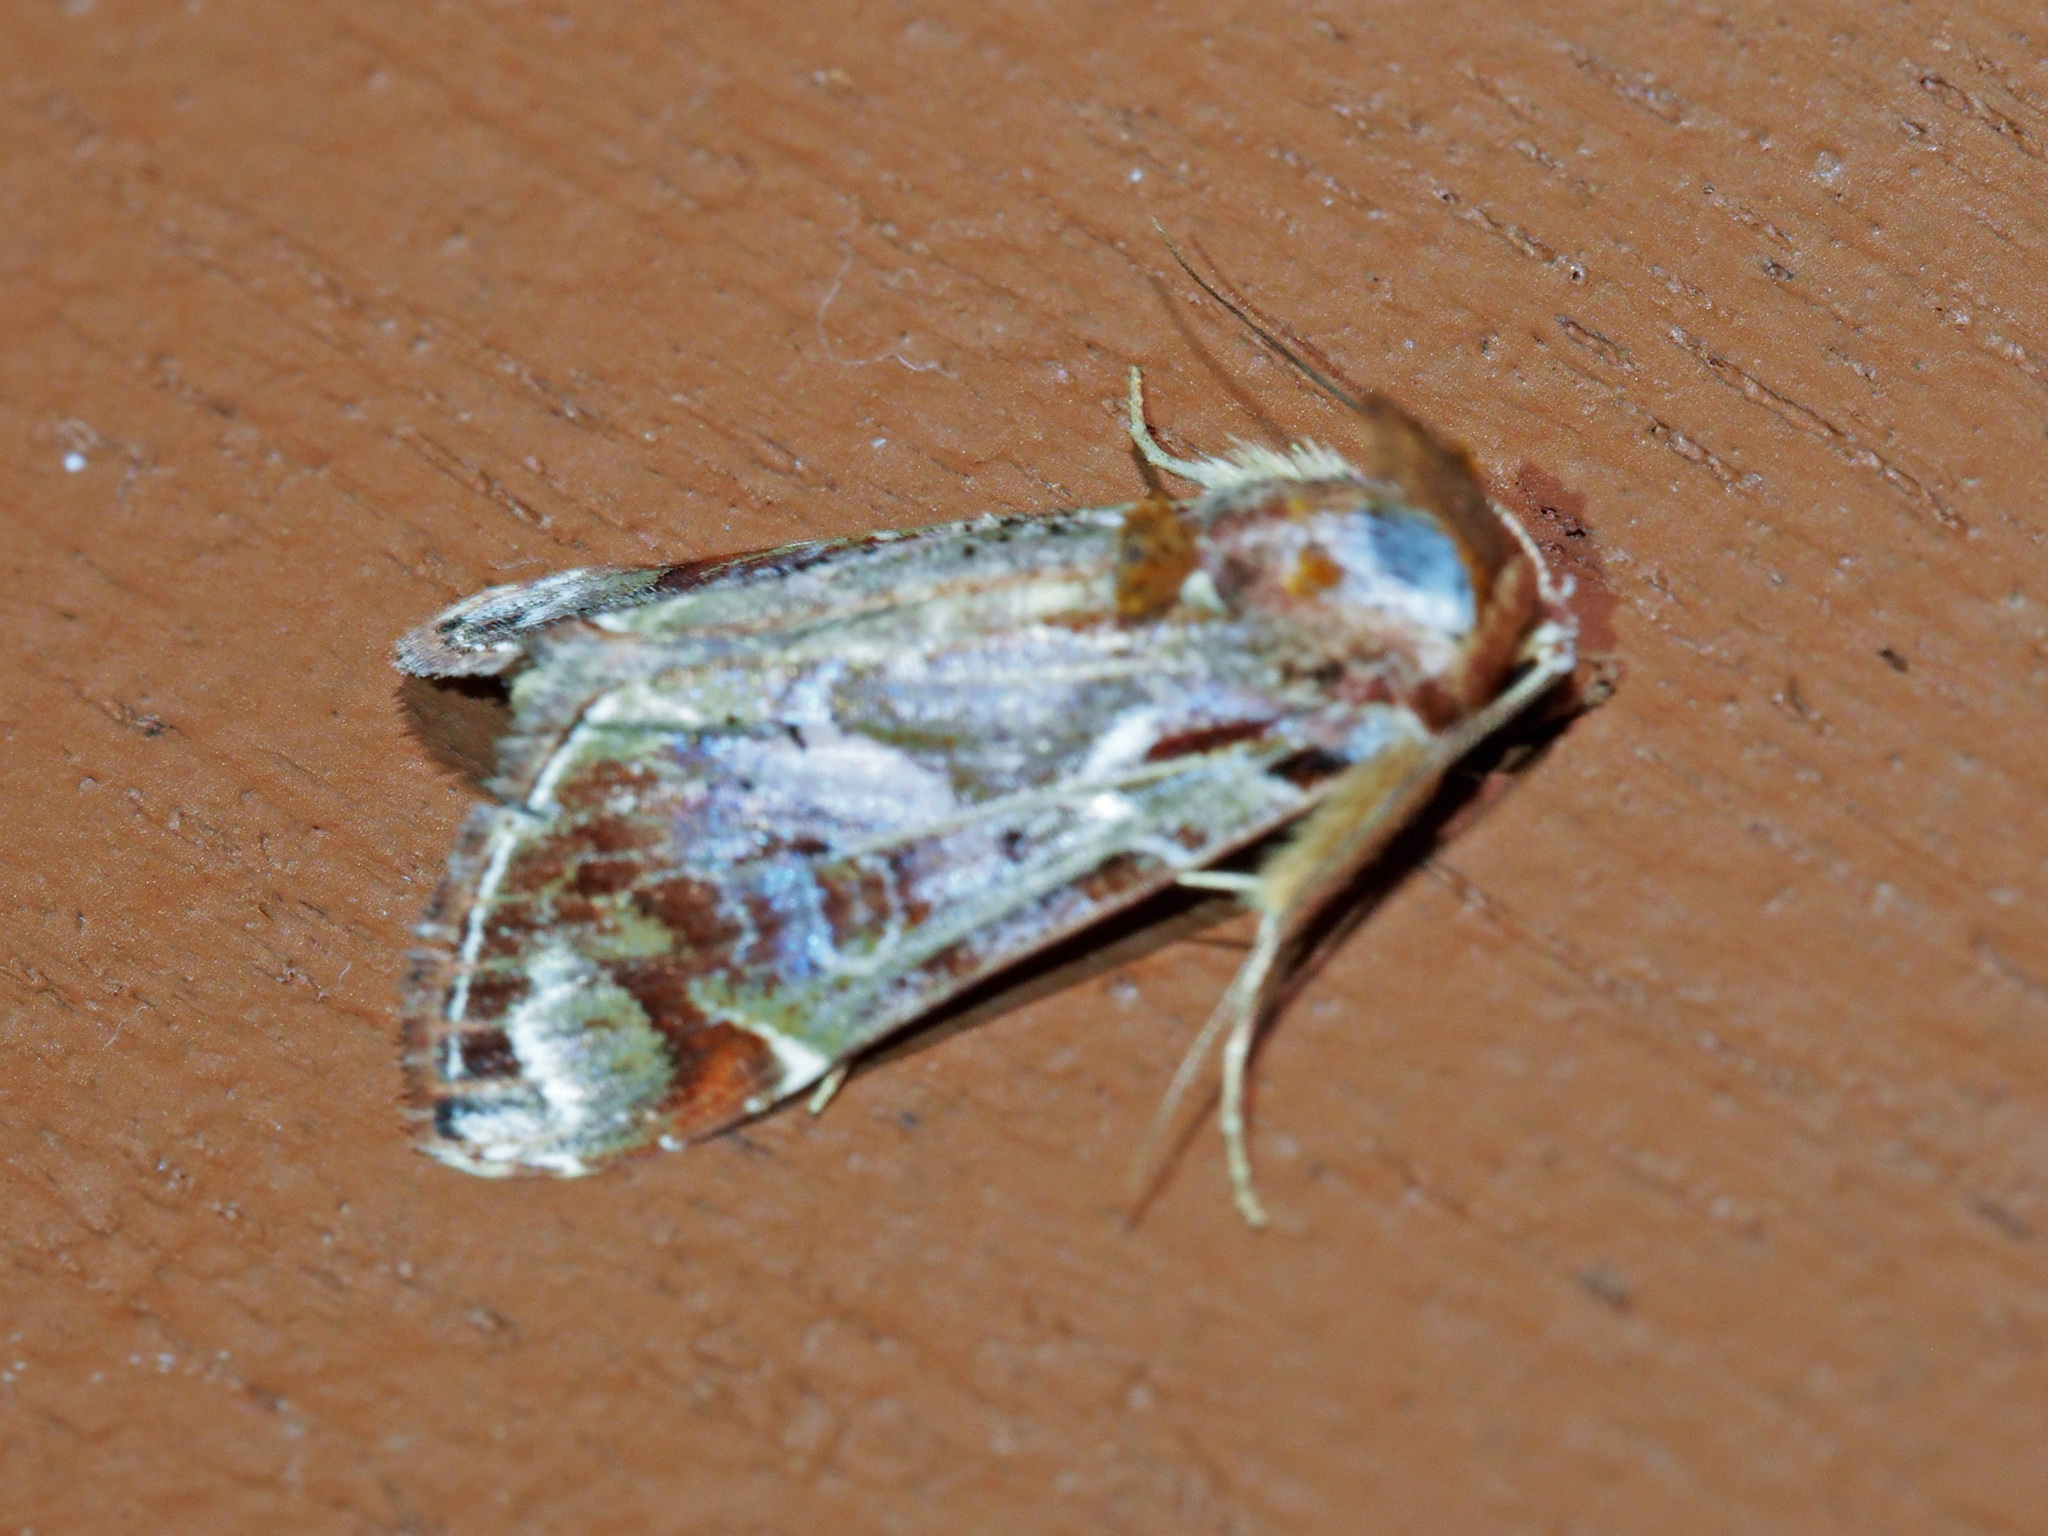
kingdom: Animalia
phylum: Arthropoda
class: Insecta
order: Lepidoptera
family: Erebidae
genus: Chorsia
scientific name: Chorsia
